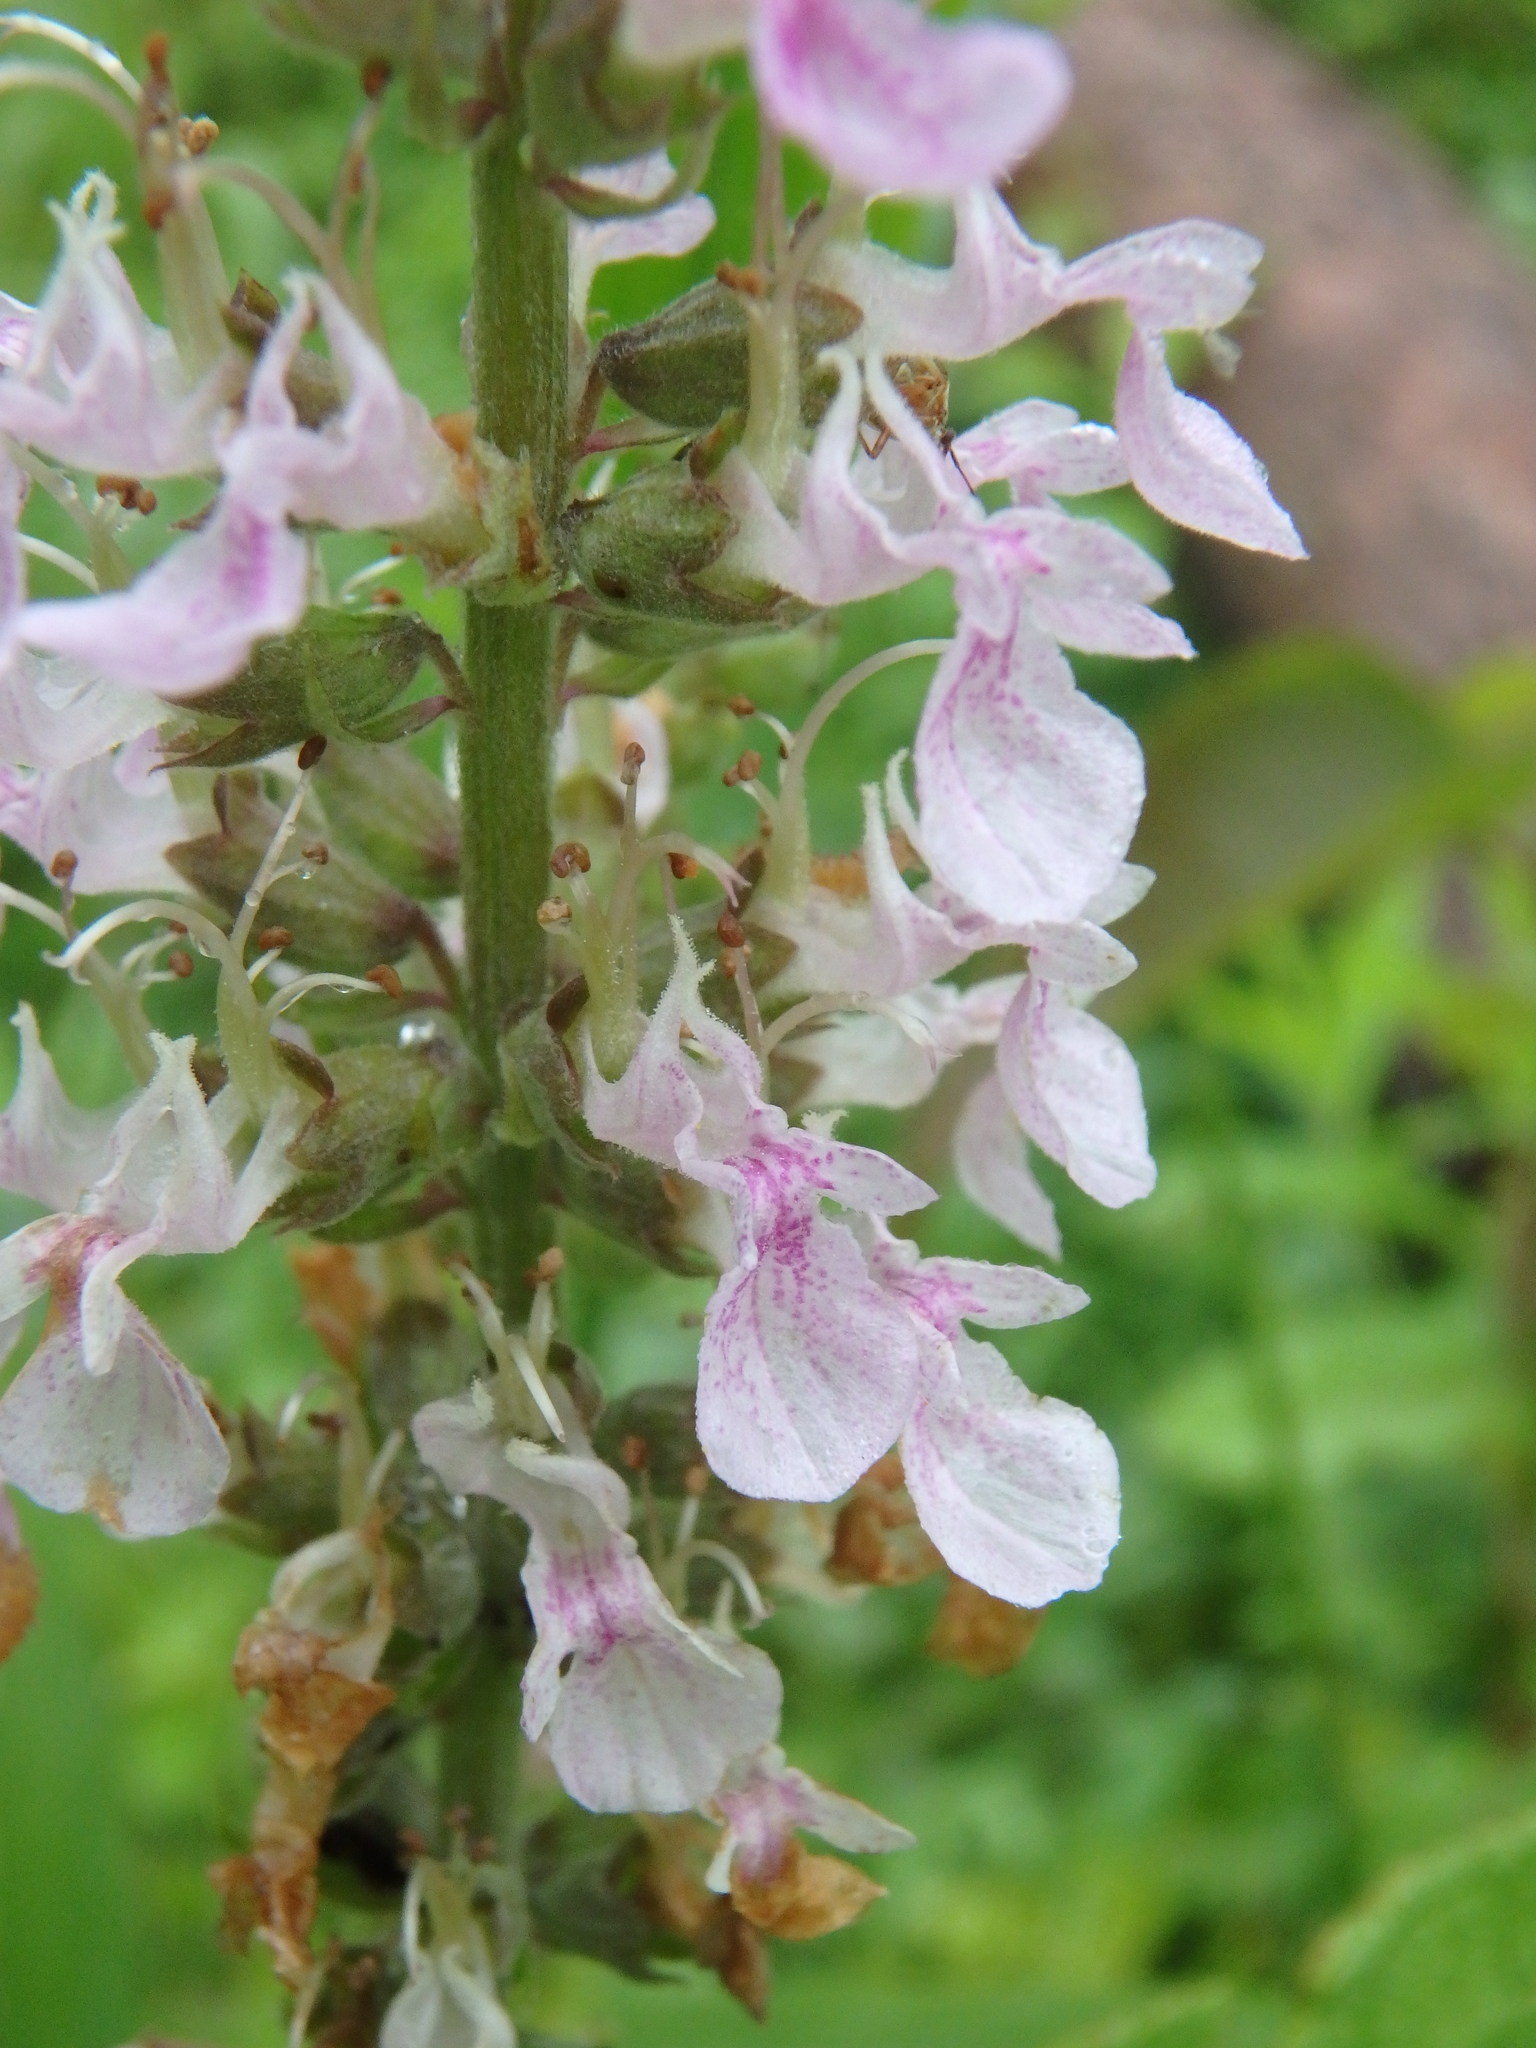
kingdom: Plantae
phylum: Tracheophyta
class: Magnoliopsida
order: Lamiales
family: Lamiaceae
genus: Teucrium
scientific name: Teucrium canadense
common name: American germander
